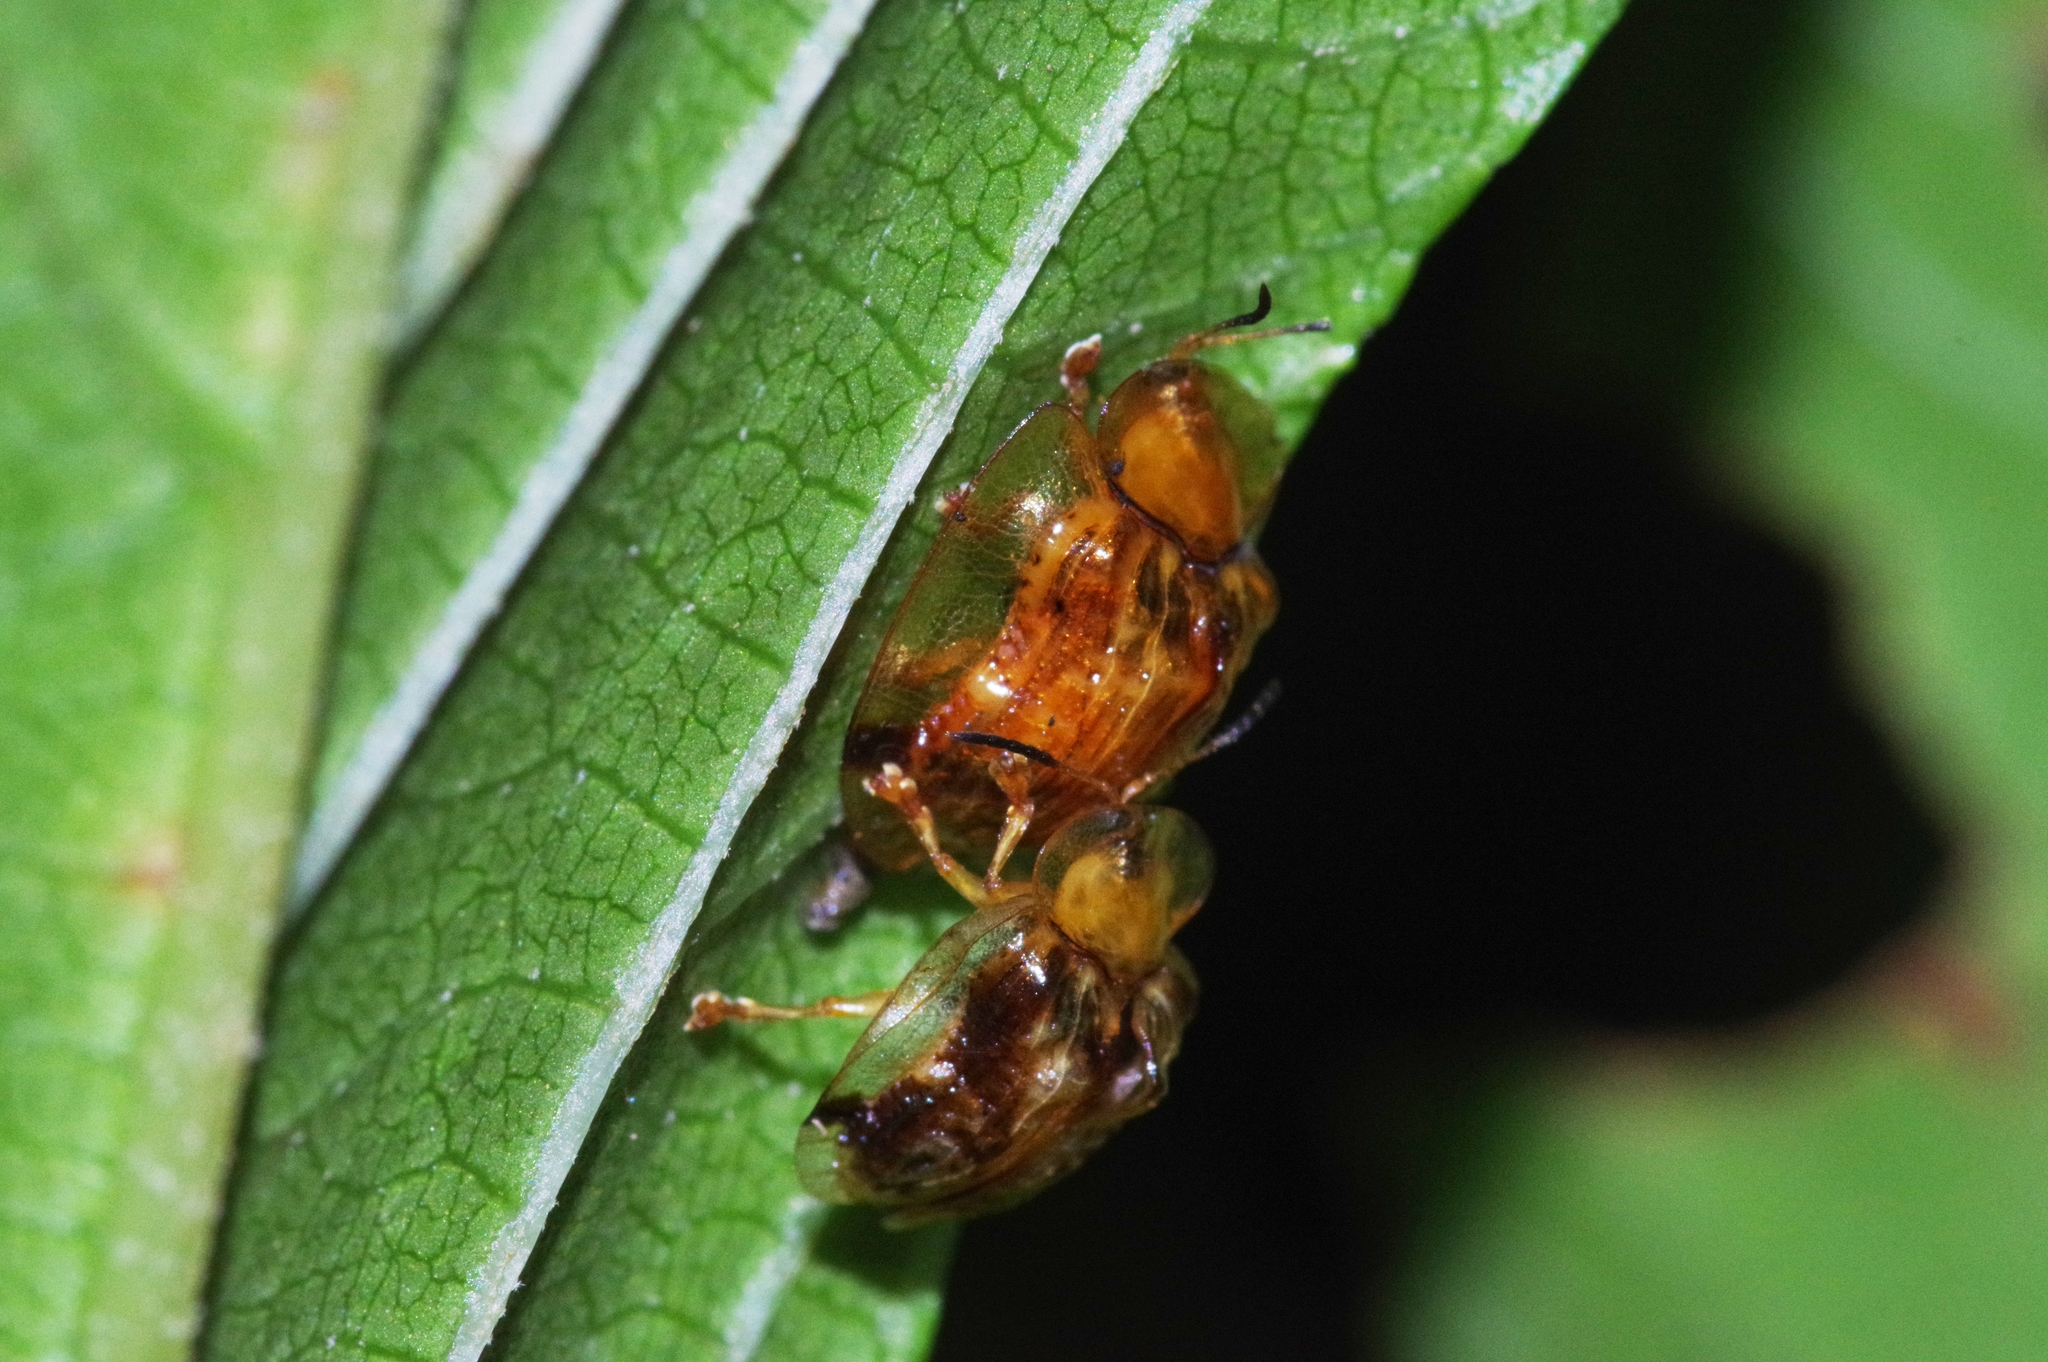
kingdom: Animalia
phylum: Arthropoda
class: Insecta
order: Coleoptera
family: Chrysomelidae
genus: Thlaspida
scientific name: Thlaspida biramosa
